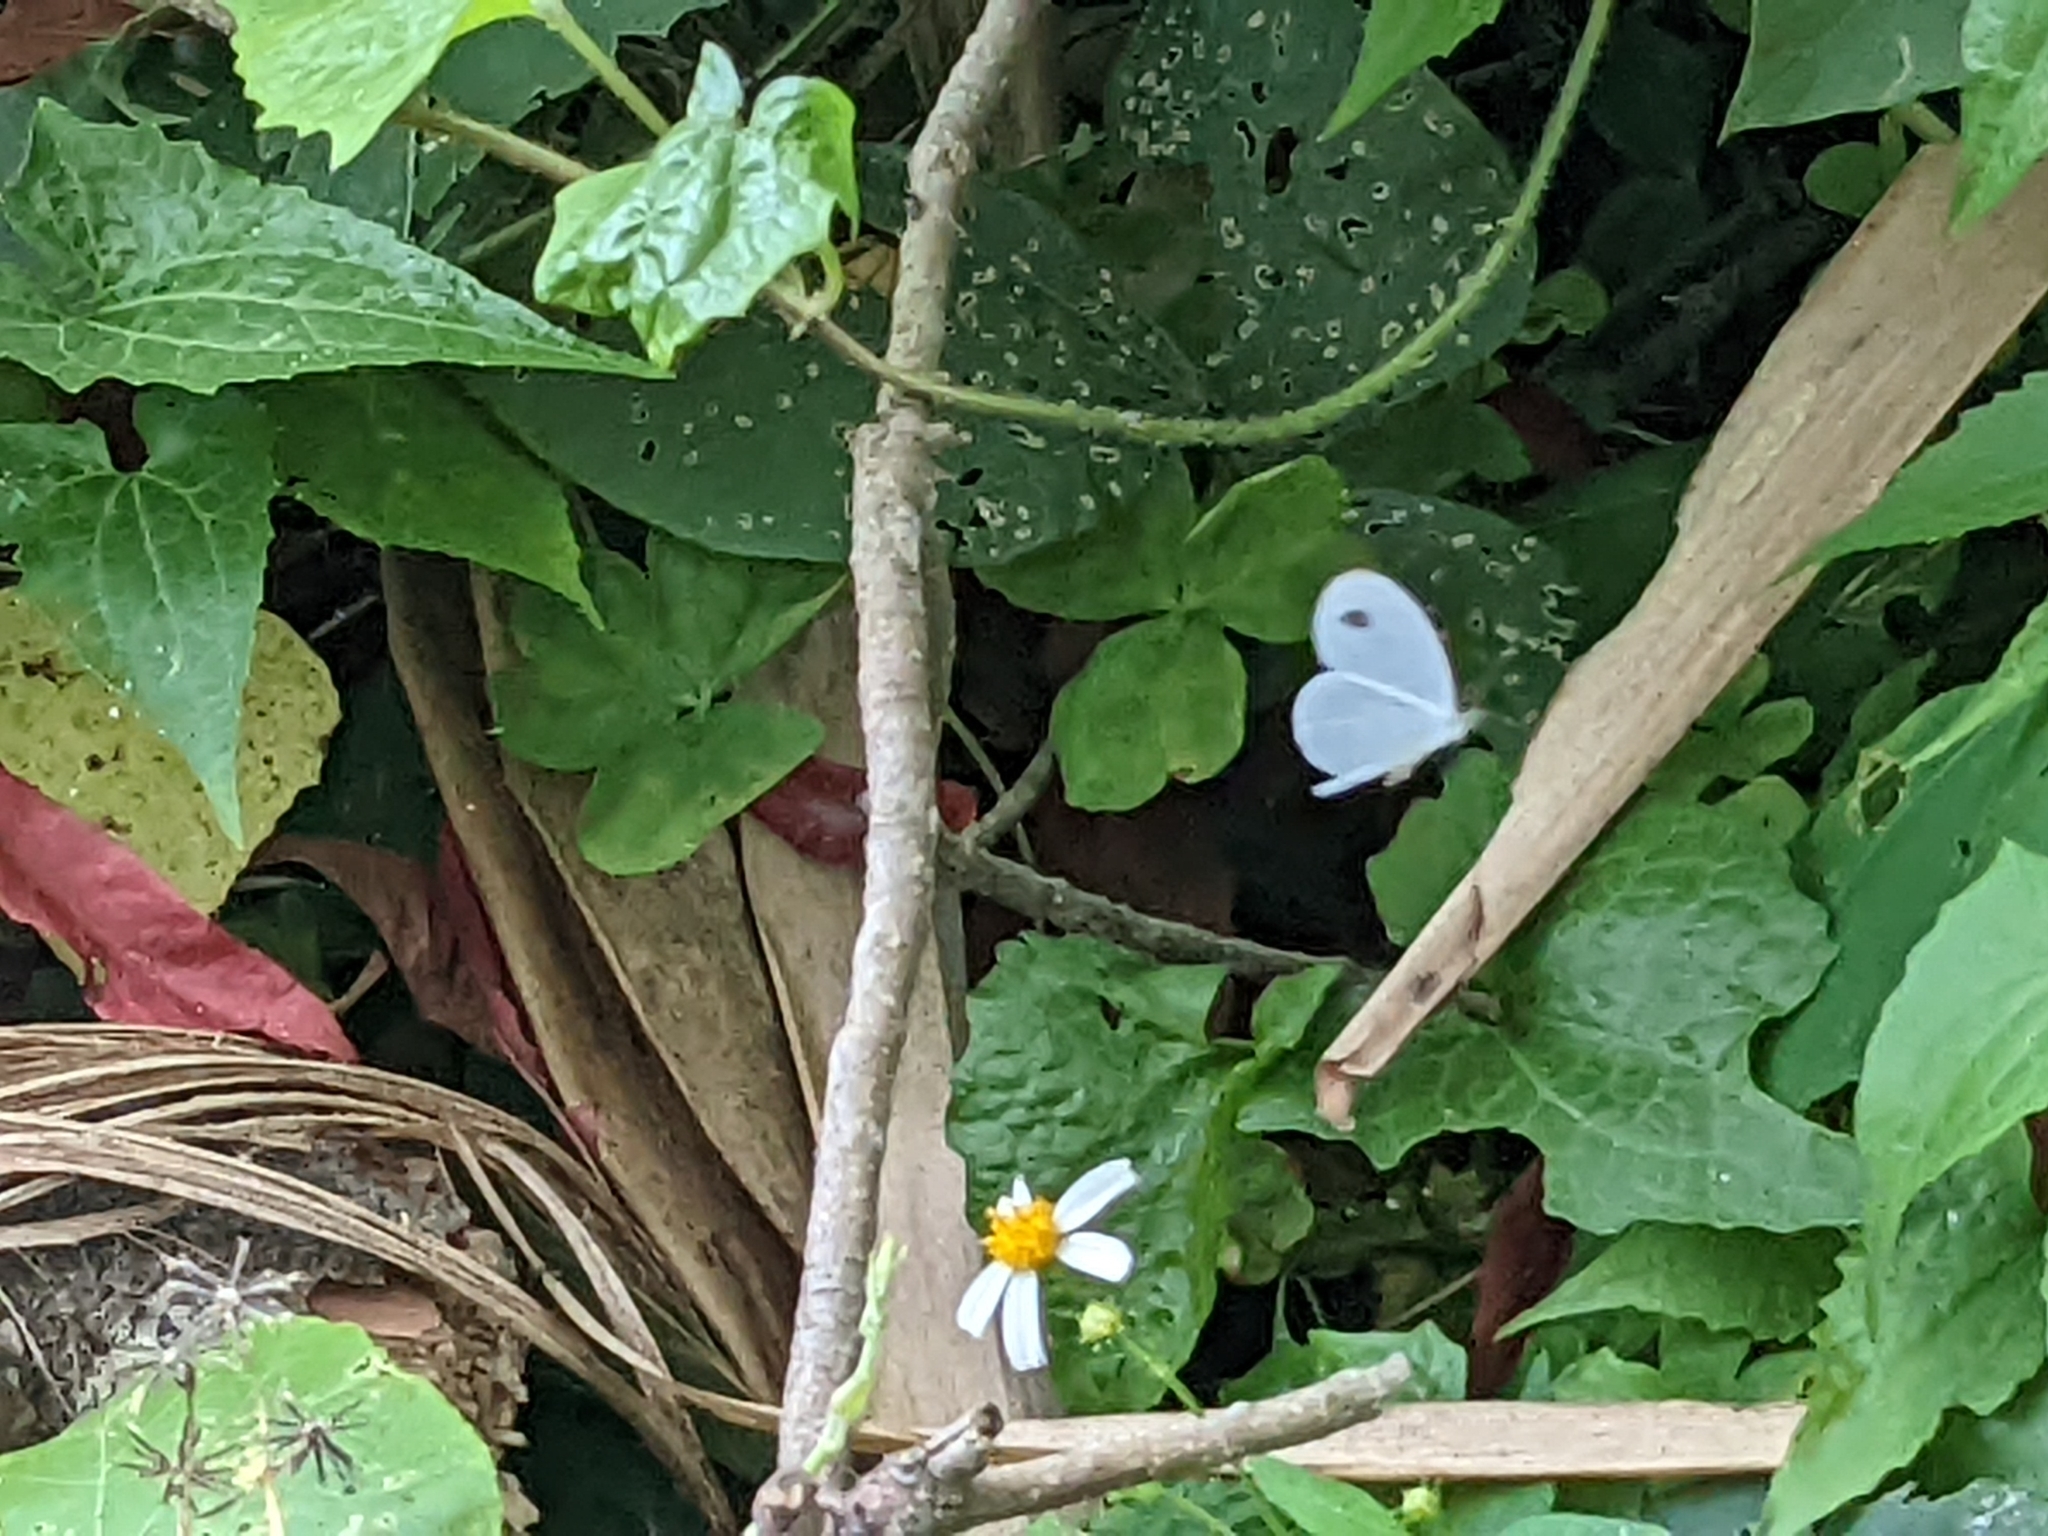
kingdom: Animalia
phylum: Arthropoda
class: Insecta
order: Lepidoptera
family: Pieridae
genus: Leptosia
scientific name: Leptosia nina
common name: Psyche
